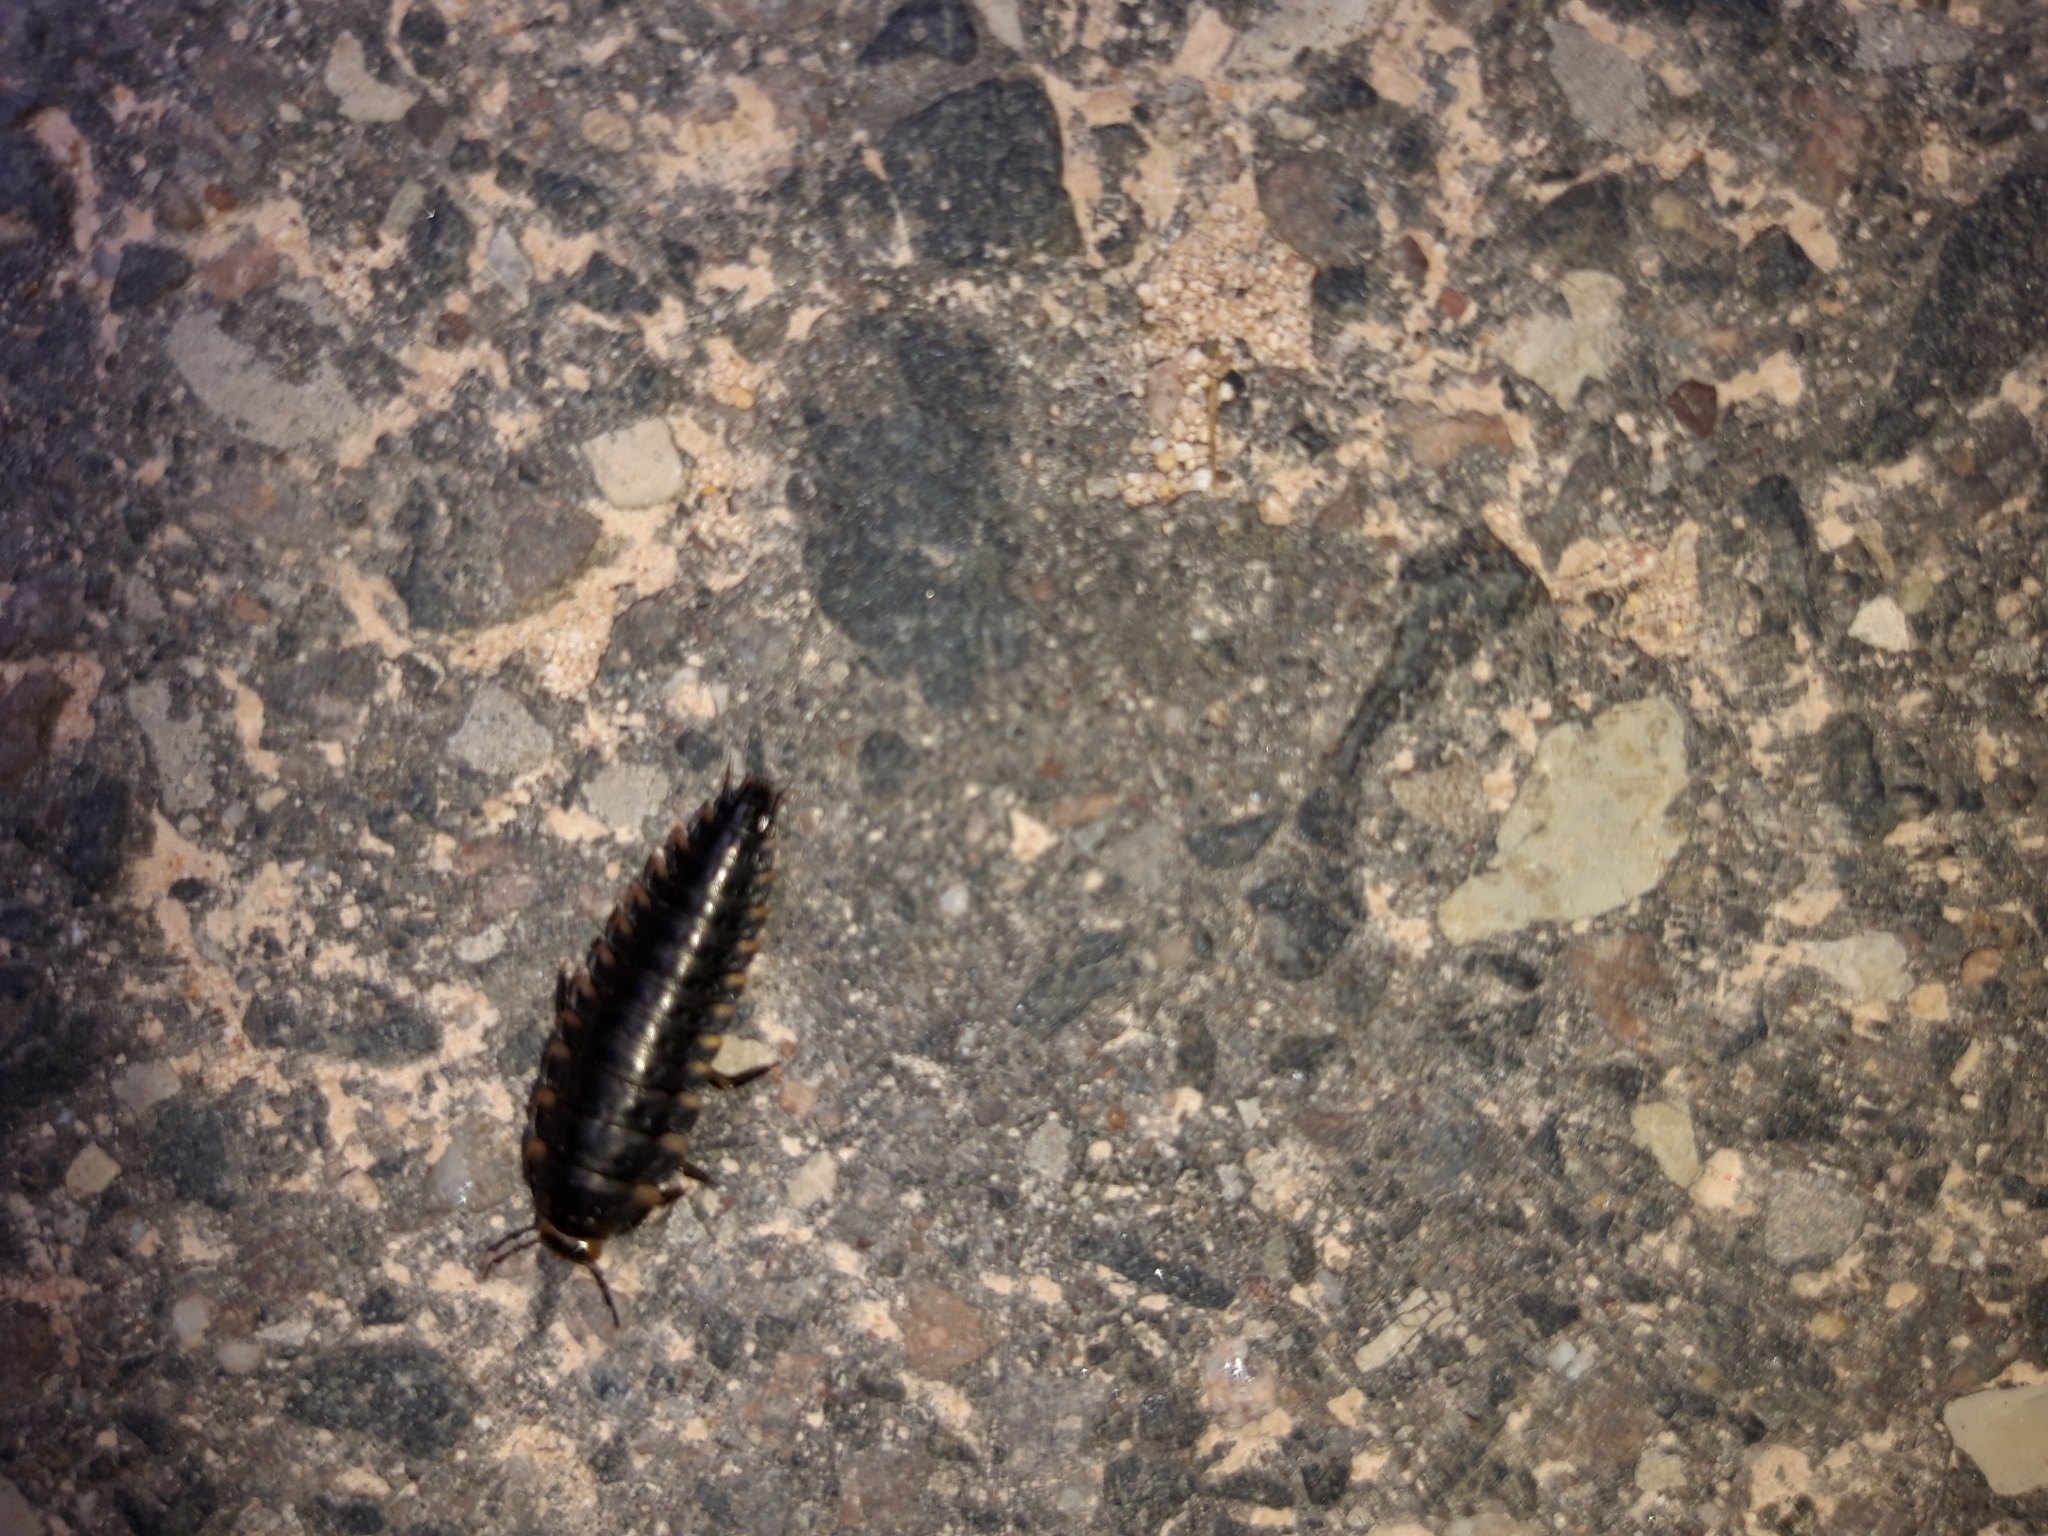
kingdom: Animalia
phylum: Arthropoda
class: Insecta
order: Coleoptera
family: Staphylinidae
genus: Silpha
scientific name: Silpha tristis
